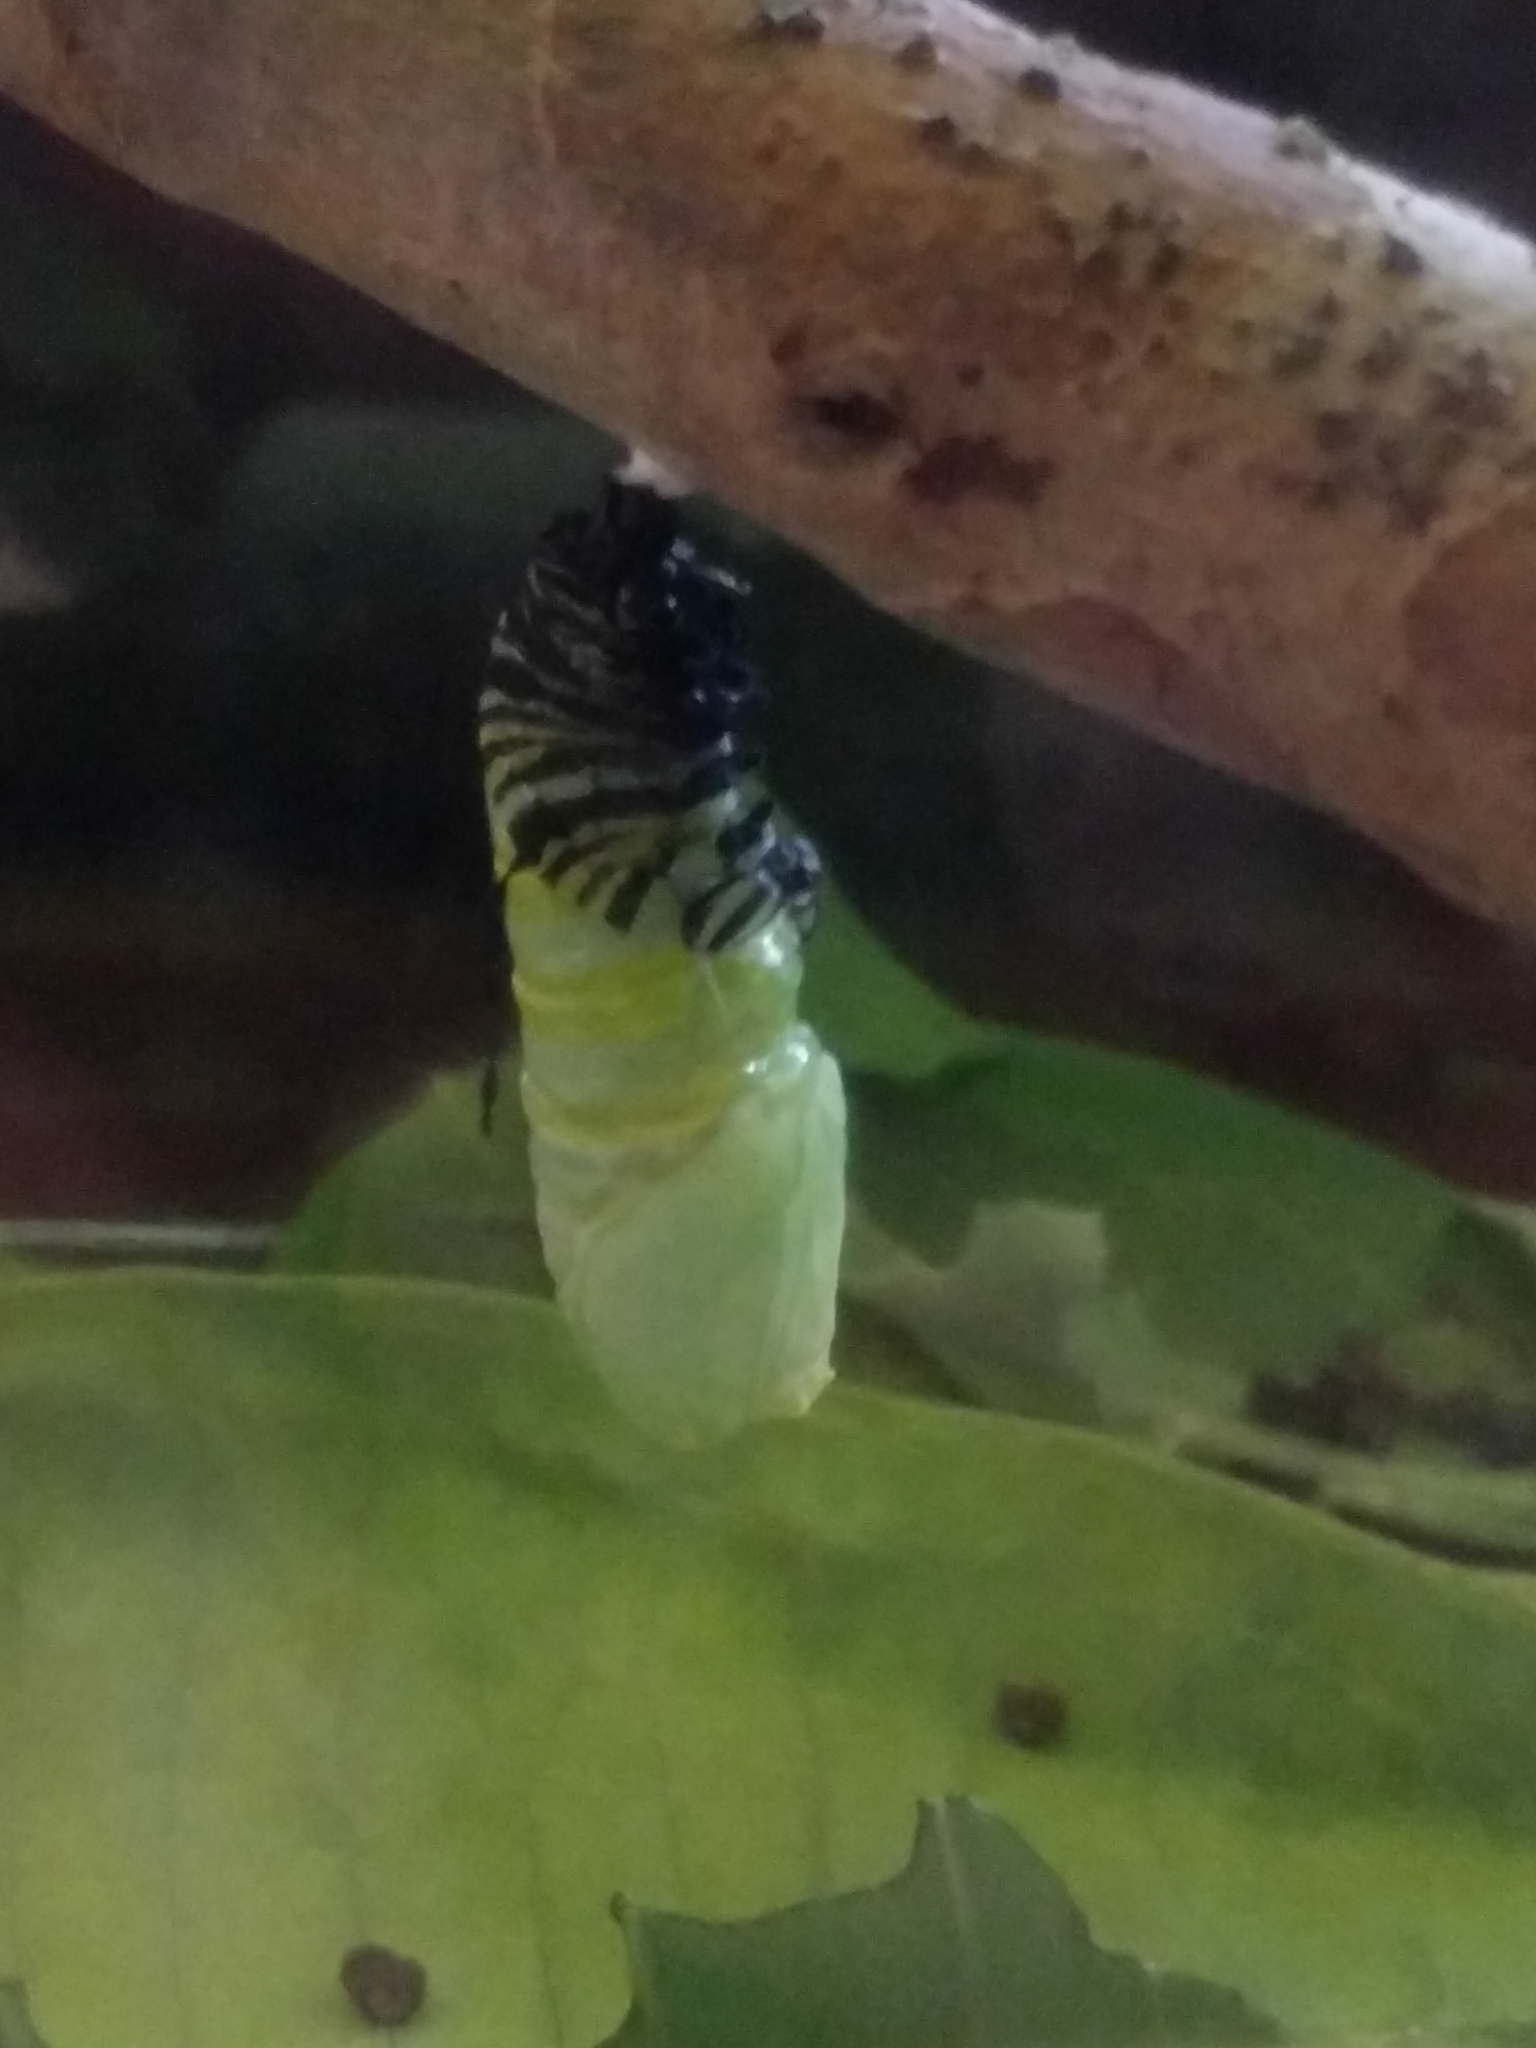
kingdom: Animalia
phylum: Arthropoda
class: Insecta
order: Lepidoptera
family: Nymphalidae
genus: Danaus
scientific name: Danaus plexippus
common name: Monarch
